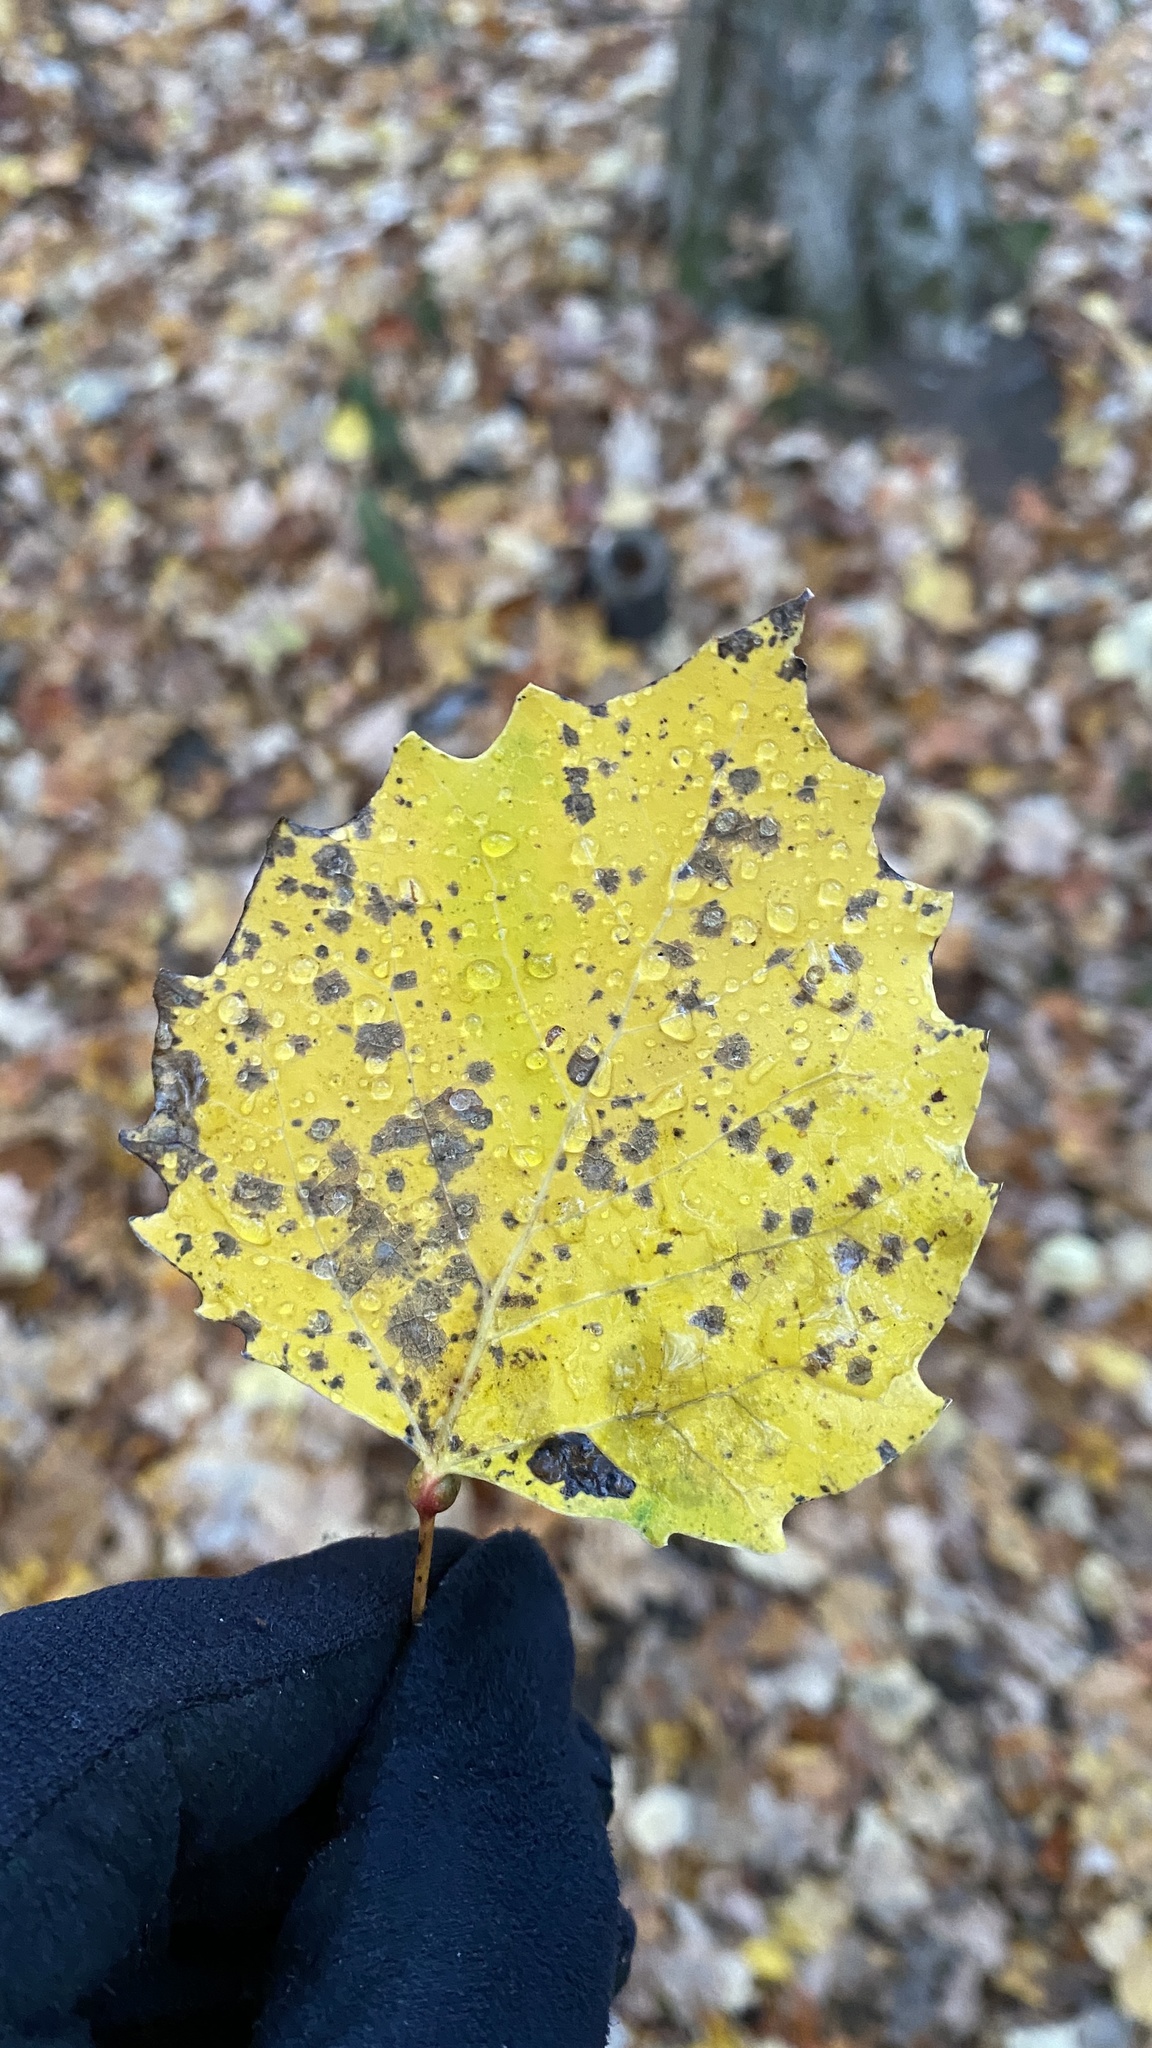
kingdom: Plantae
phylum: Tracheophyta
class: Magnoliopsida
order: Malpighiales
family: Salicaceae
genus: Populus
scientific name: Populus grandidentata
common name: Bigtooth aspen
